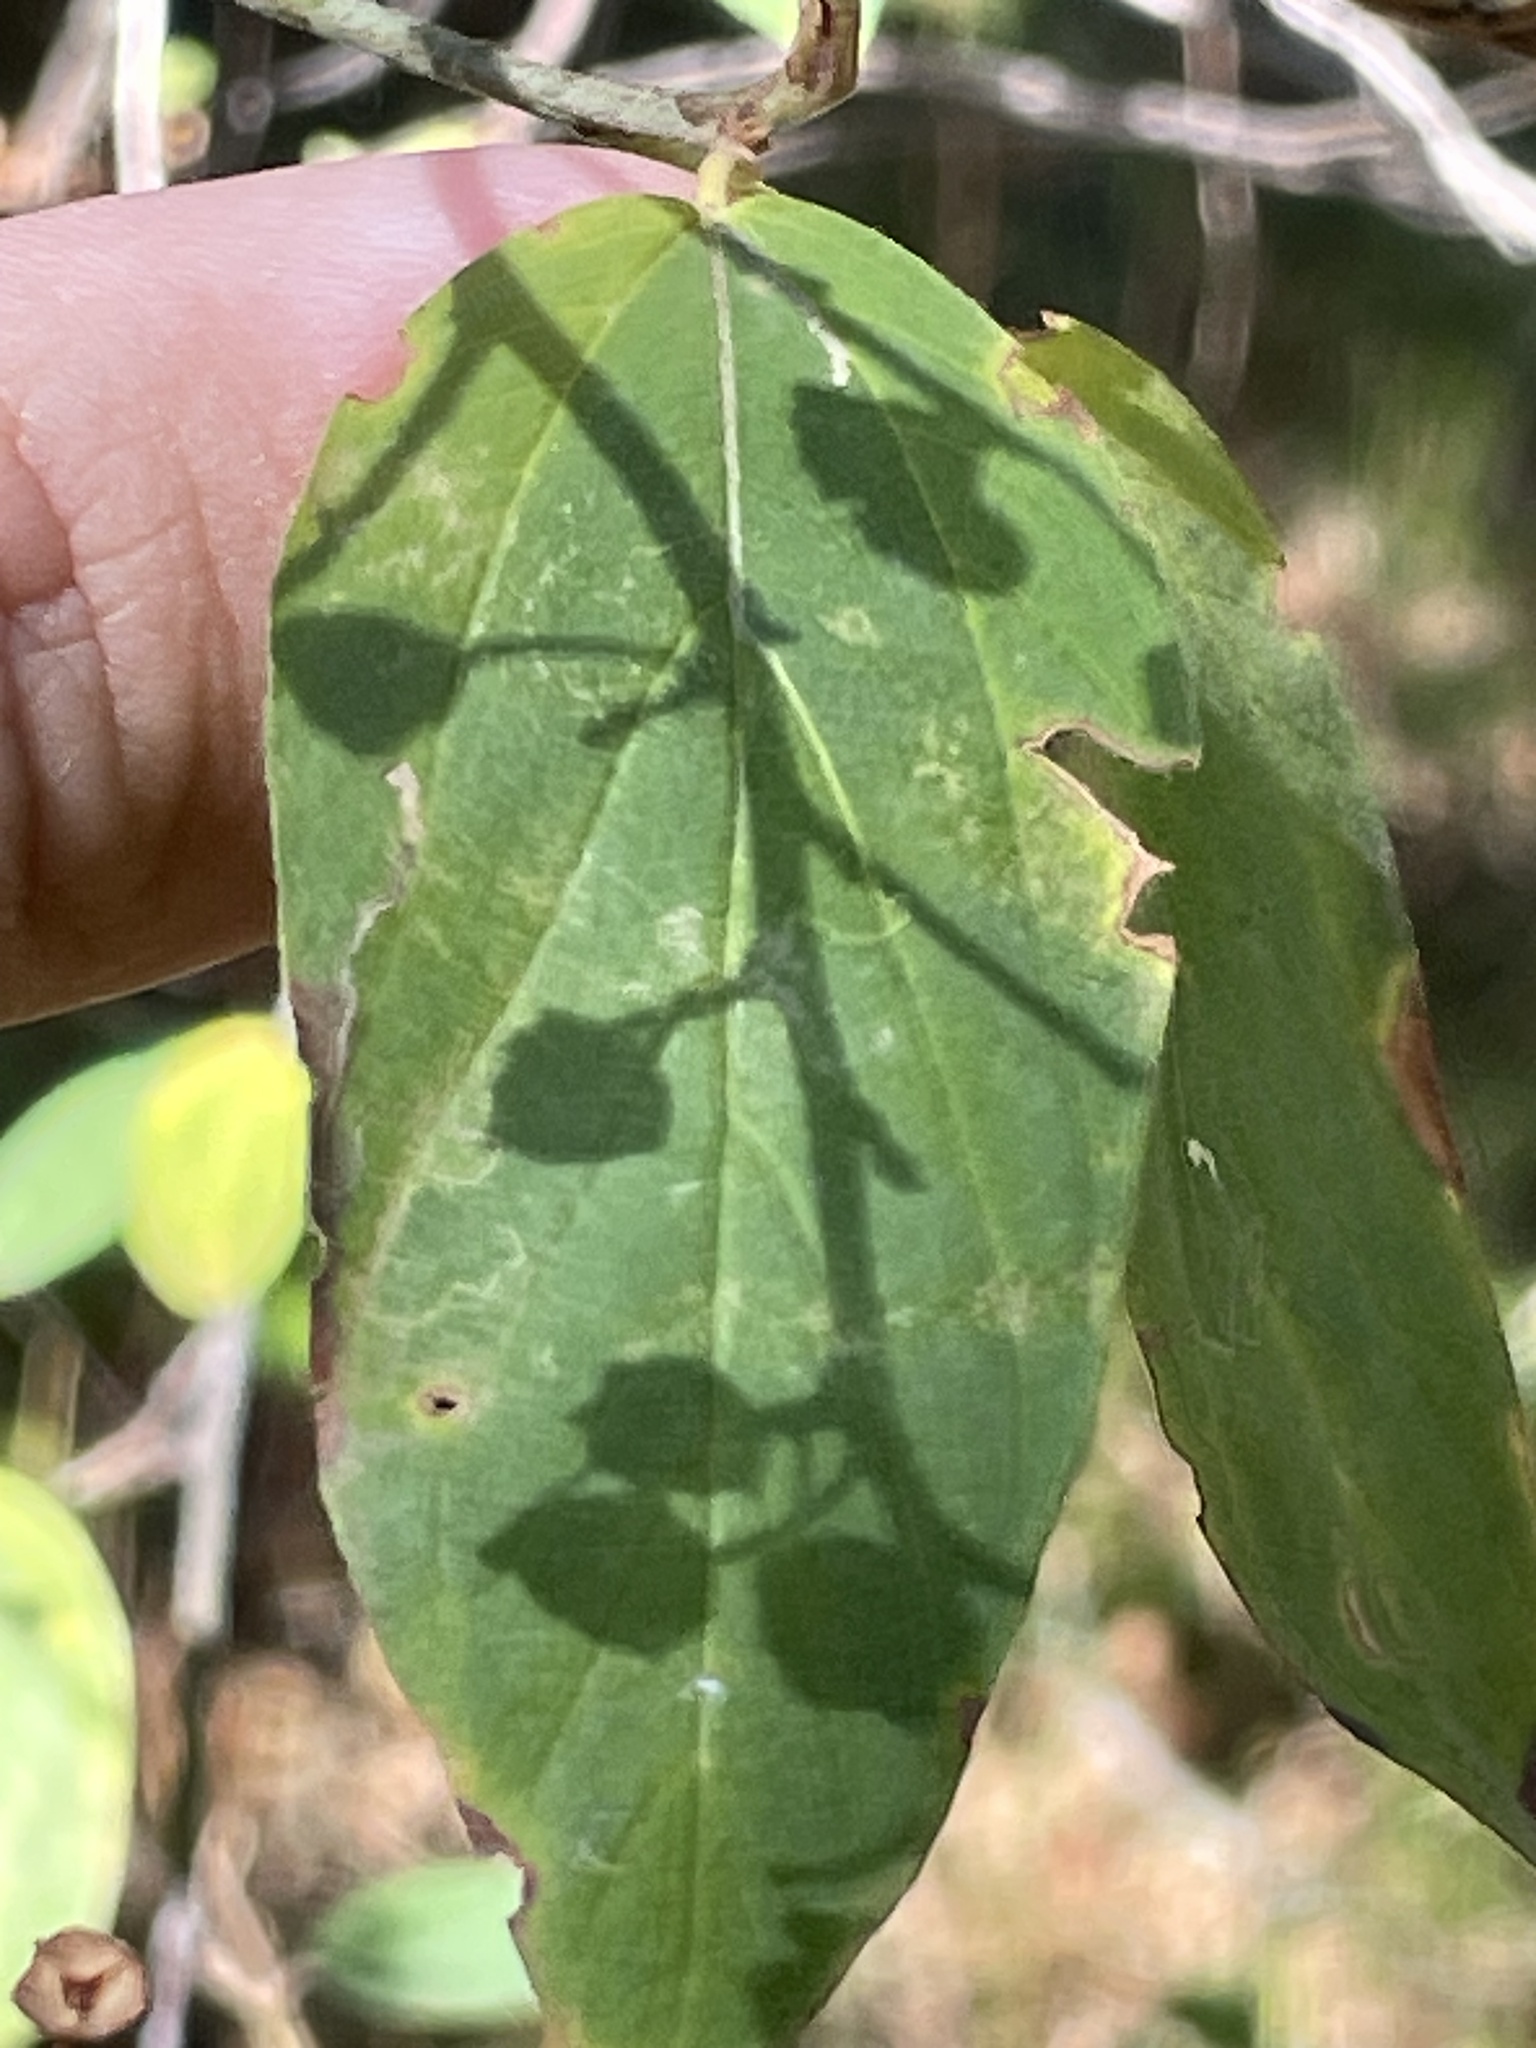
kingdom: Plantae
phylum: Tracheophyta
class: Magnoliopsida
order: Rosales
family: Rhamnaceae
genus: Ceanothus
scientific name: Ceanothus integerrimus
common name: Deerbrush ceanothus
